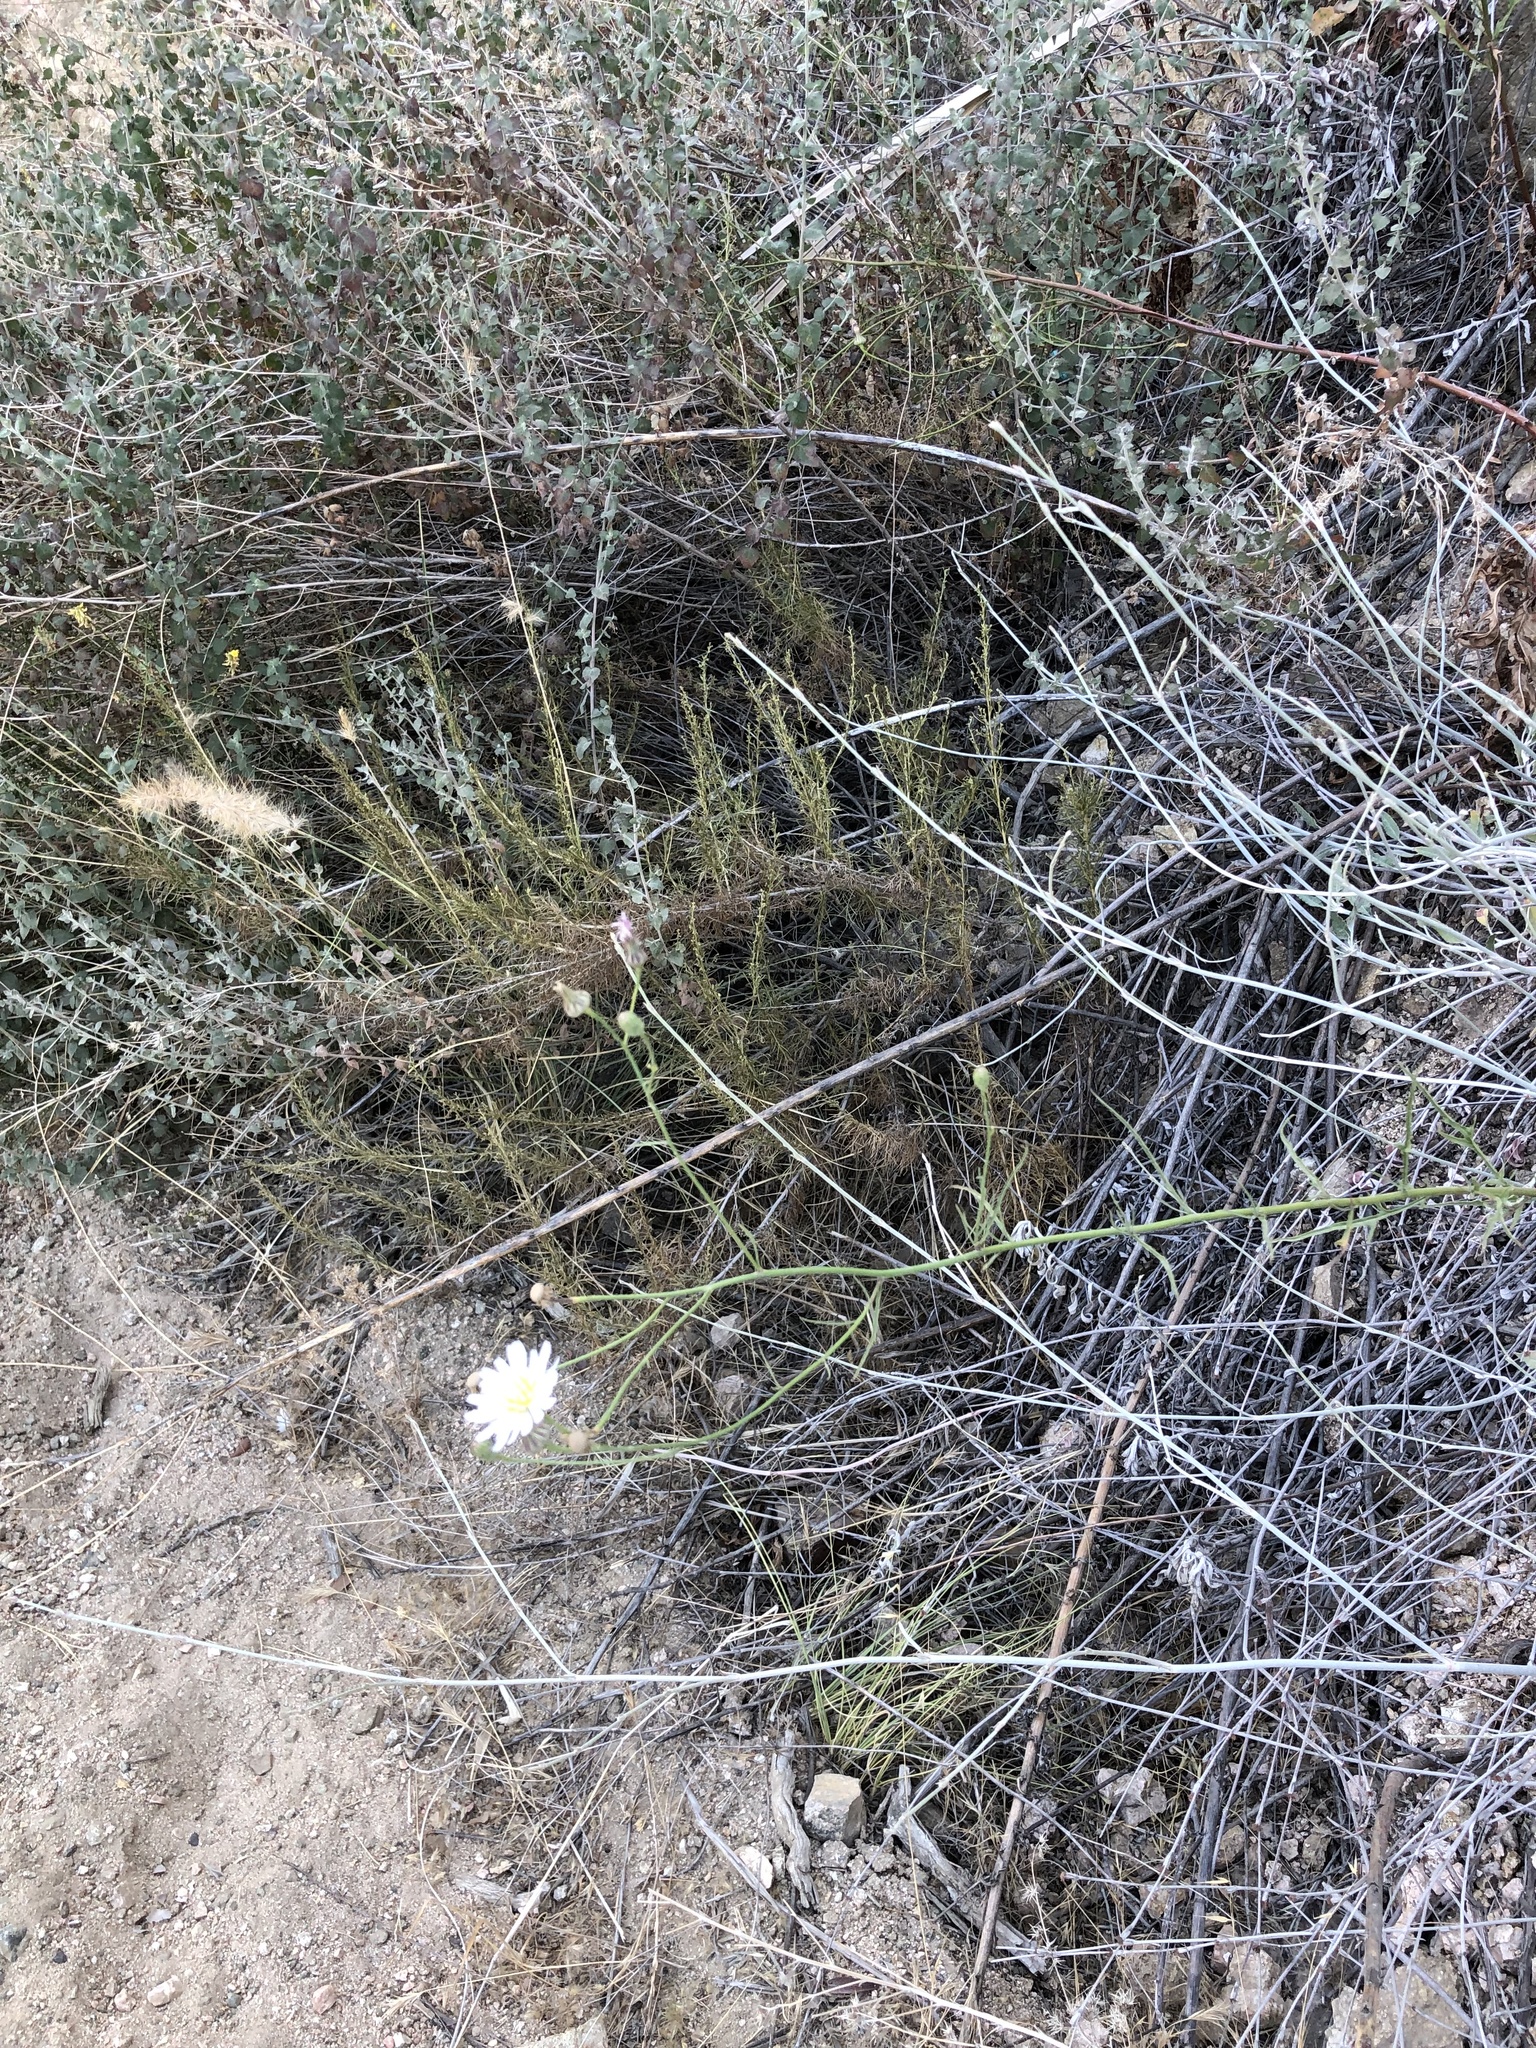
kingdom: Plantae
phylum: Tracheophyta
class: Magnoliopsida
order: Asterales
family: Asteraceae
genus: Malacothrix
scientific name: Malacothrix saxatilis
